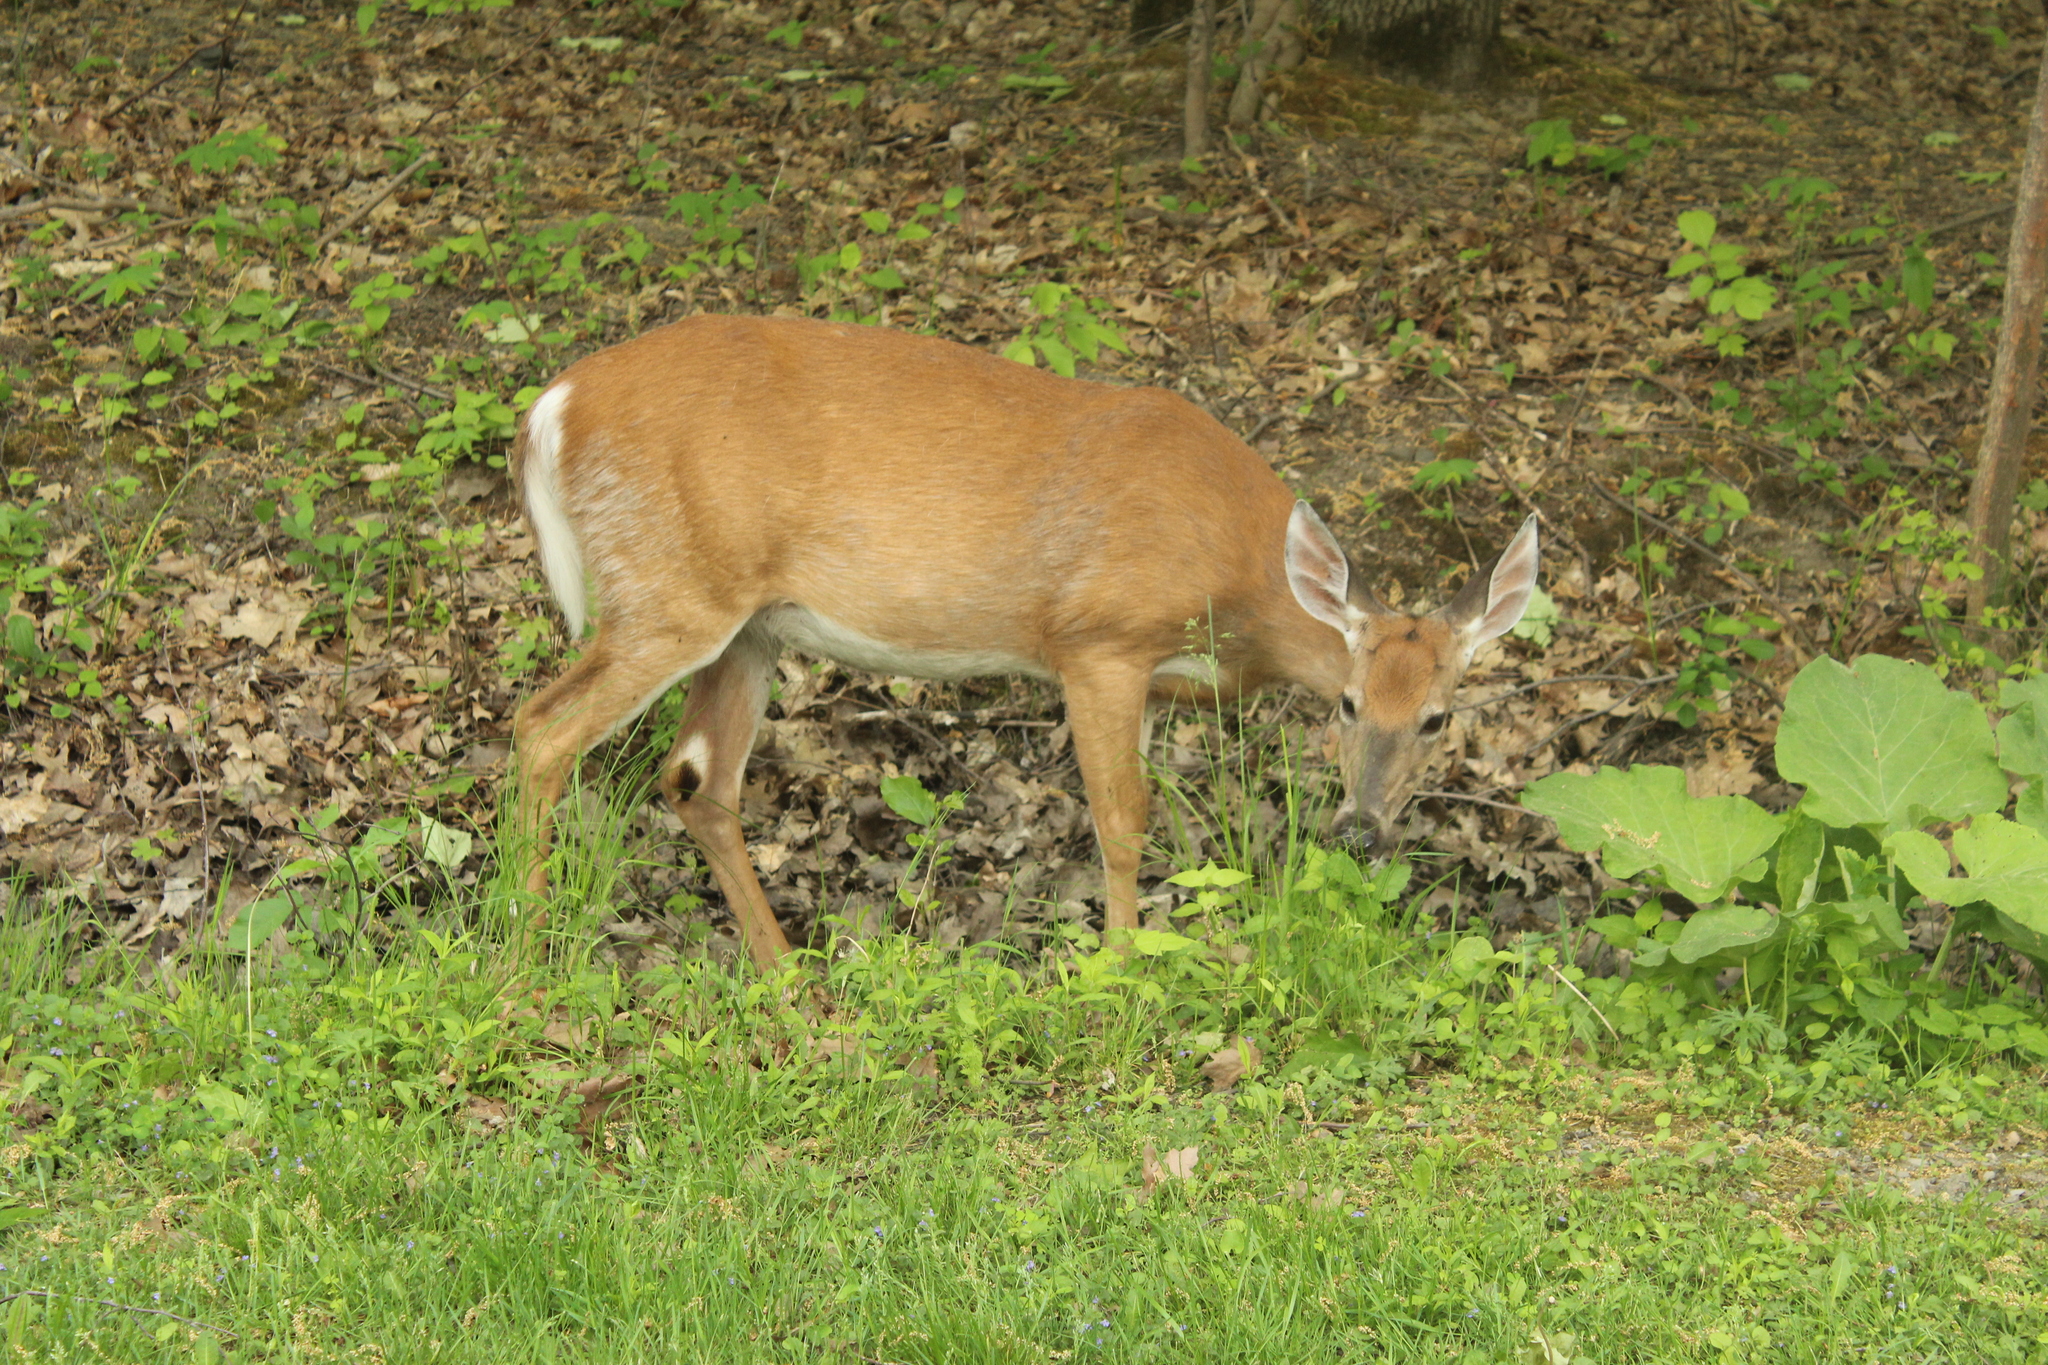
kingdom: Animalia
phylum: Chordata
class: Mammalia
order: Artiodactyla
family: Cervidae
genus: Odocoileus
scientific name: Odocoileus virginianus
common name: White-tailed deer
